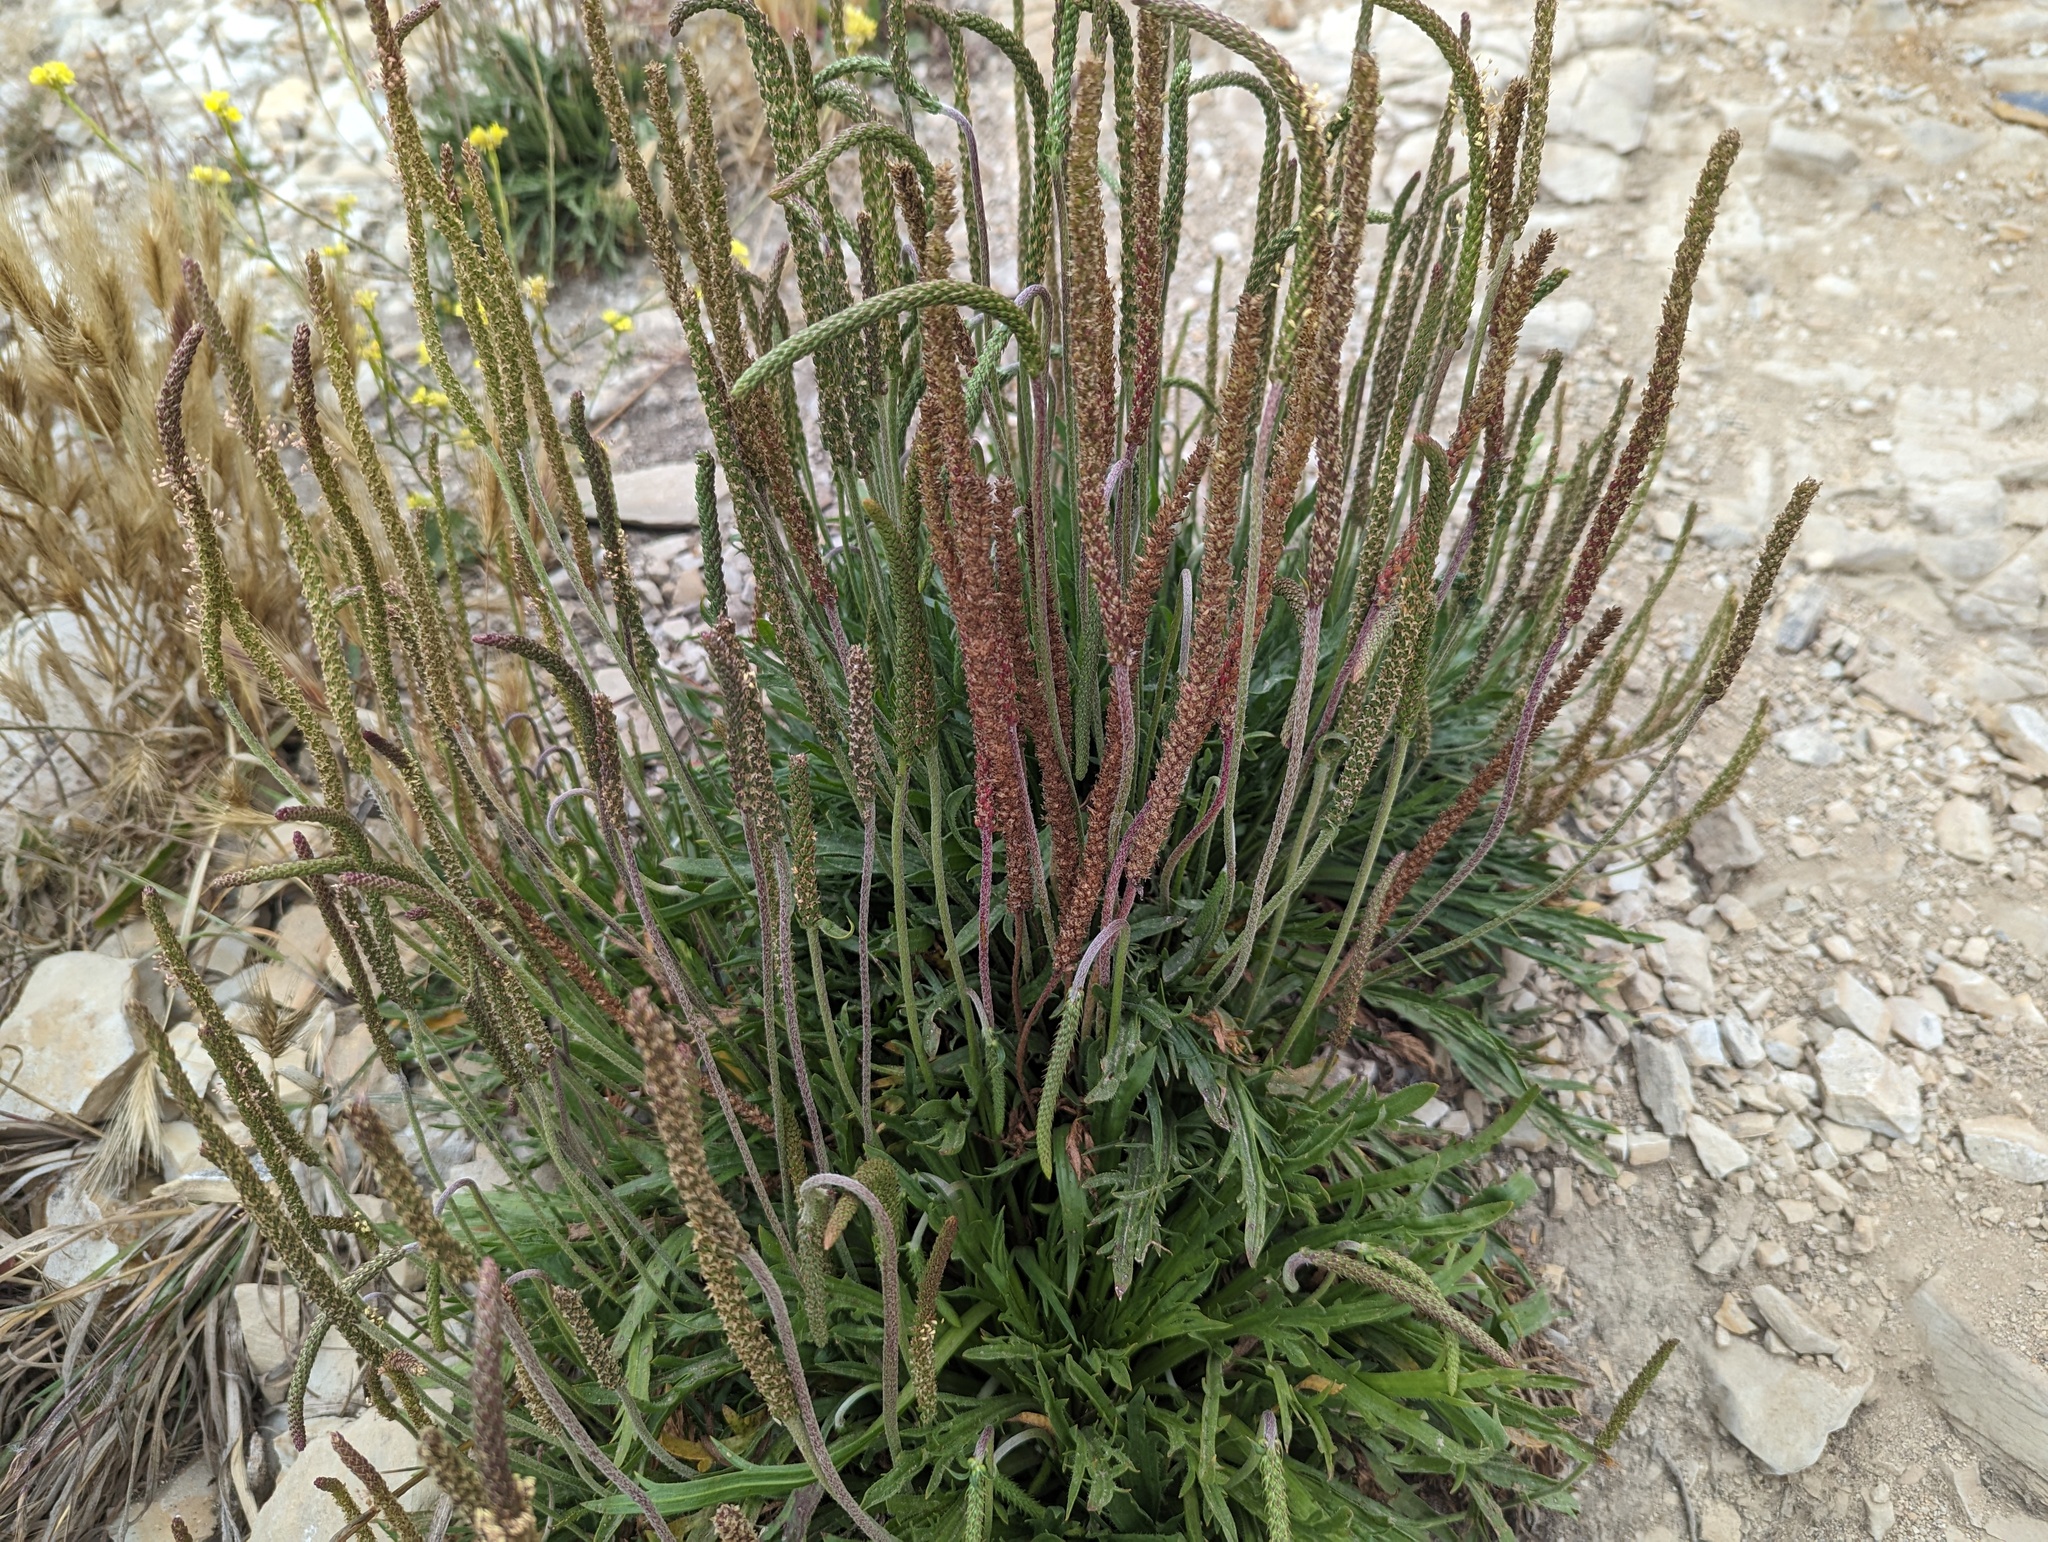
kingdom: Plantae
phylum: Tracheophyta
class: Magnoliopsida
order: Lamiales
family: Plantaginaceae
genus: Plantago
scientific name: Plantago coronopus
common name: Buck's-horn plantain
